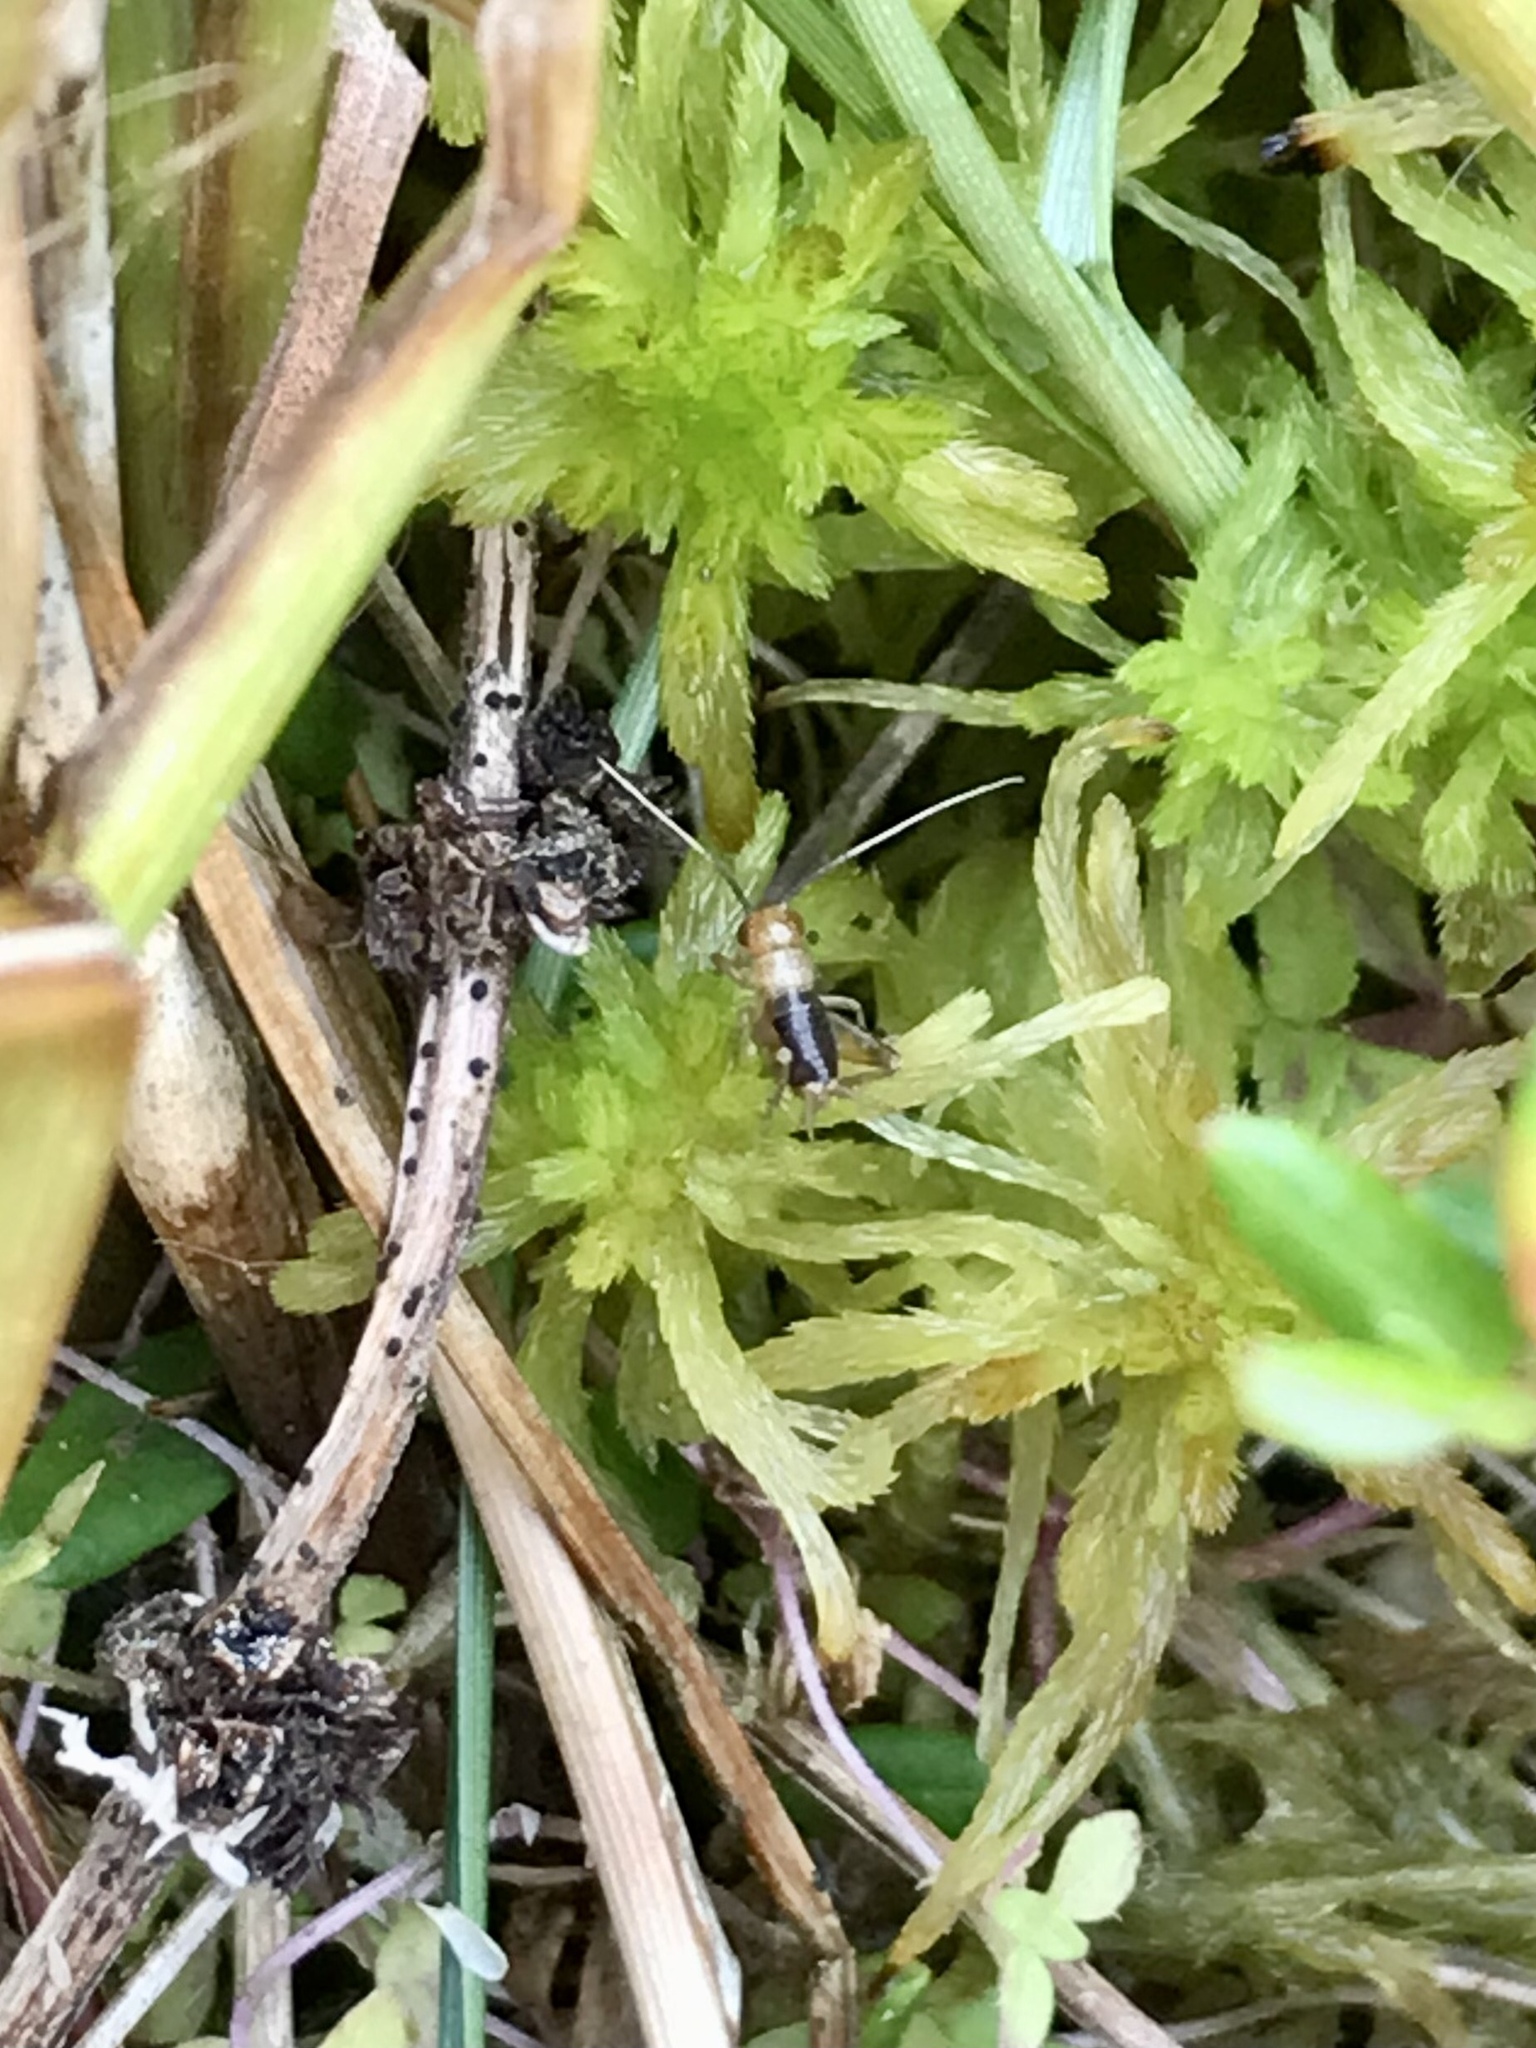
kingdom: Animalia
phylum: Arthropoda
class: Insecta
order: Orthoptera
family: Trigonidiidae
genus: Neonemobius
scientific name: Neonemobius palustris
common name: Marsh ground cricket
